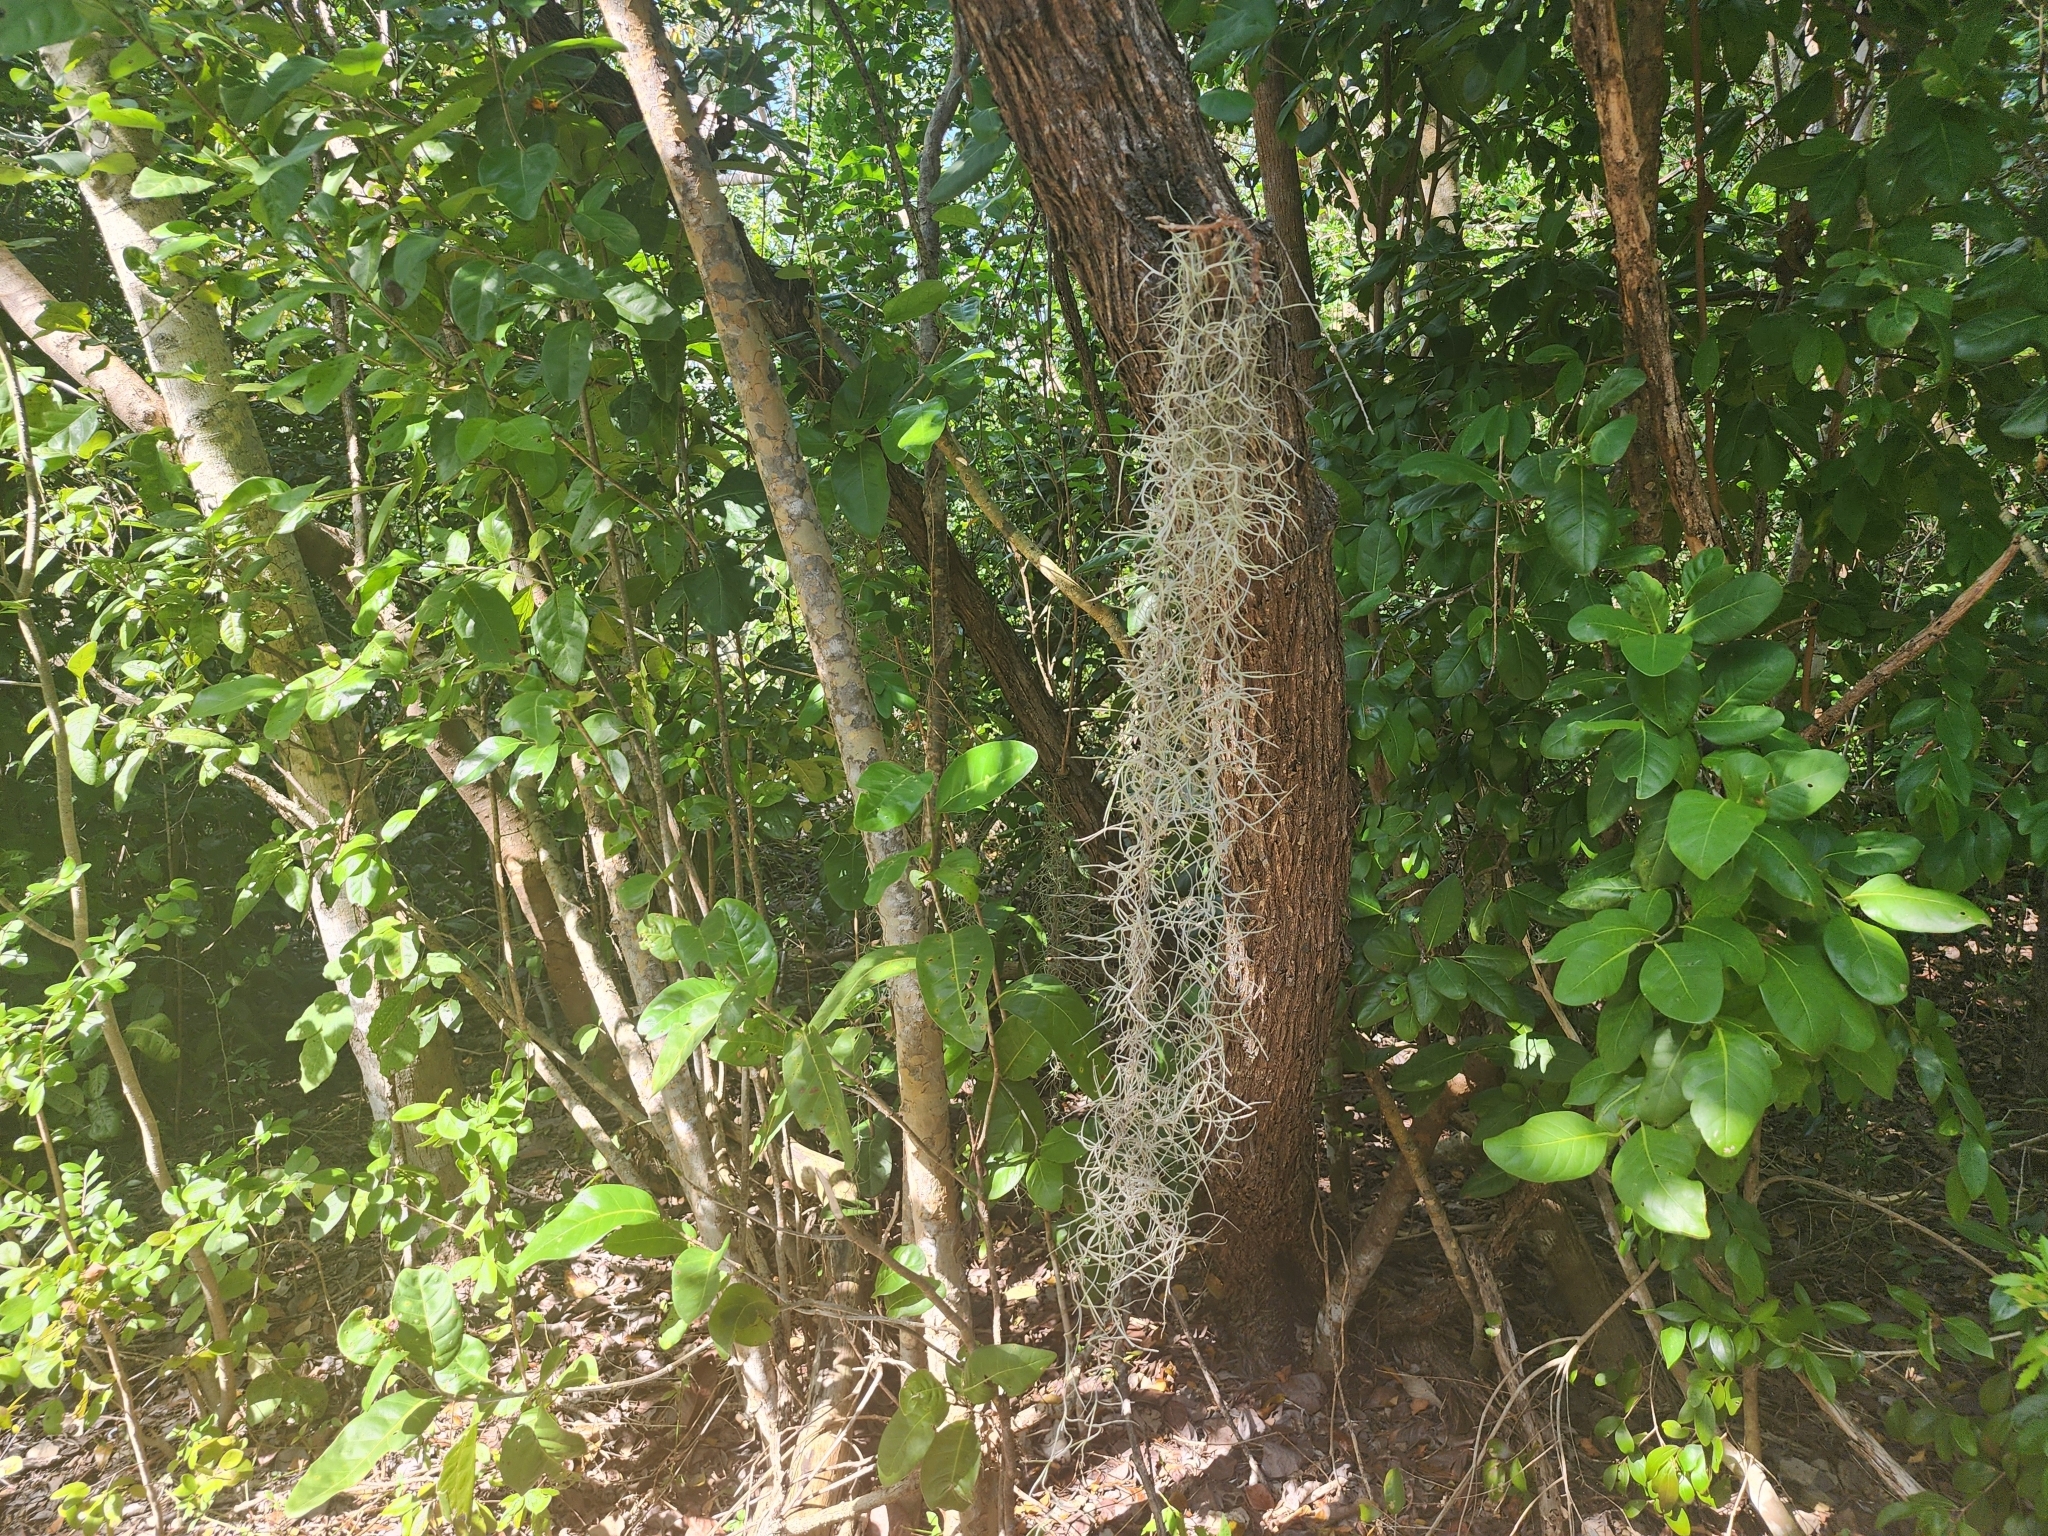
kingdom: Plantae
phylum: Tracheophyta
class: Liliopsida
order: Poales
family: Bromeliaceae
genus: Tillandsia
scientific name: Tillandsia usneoides
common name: Spanish moss
